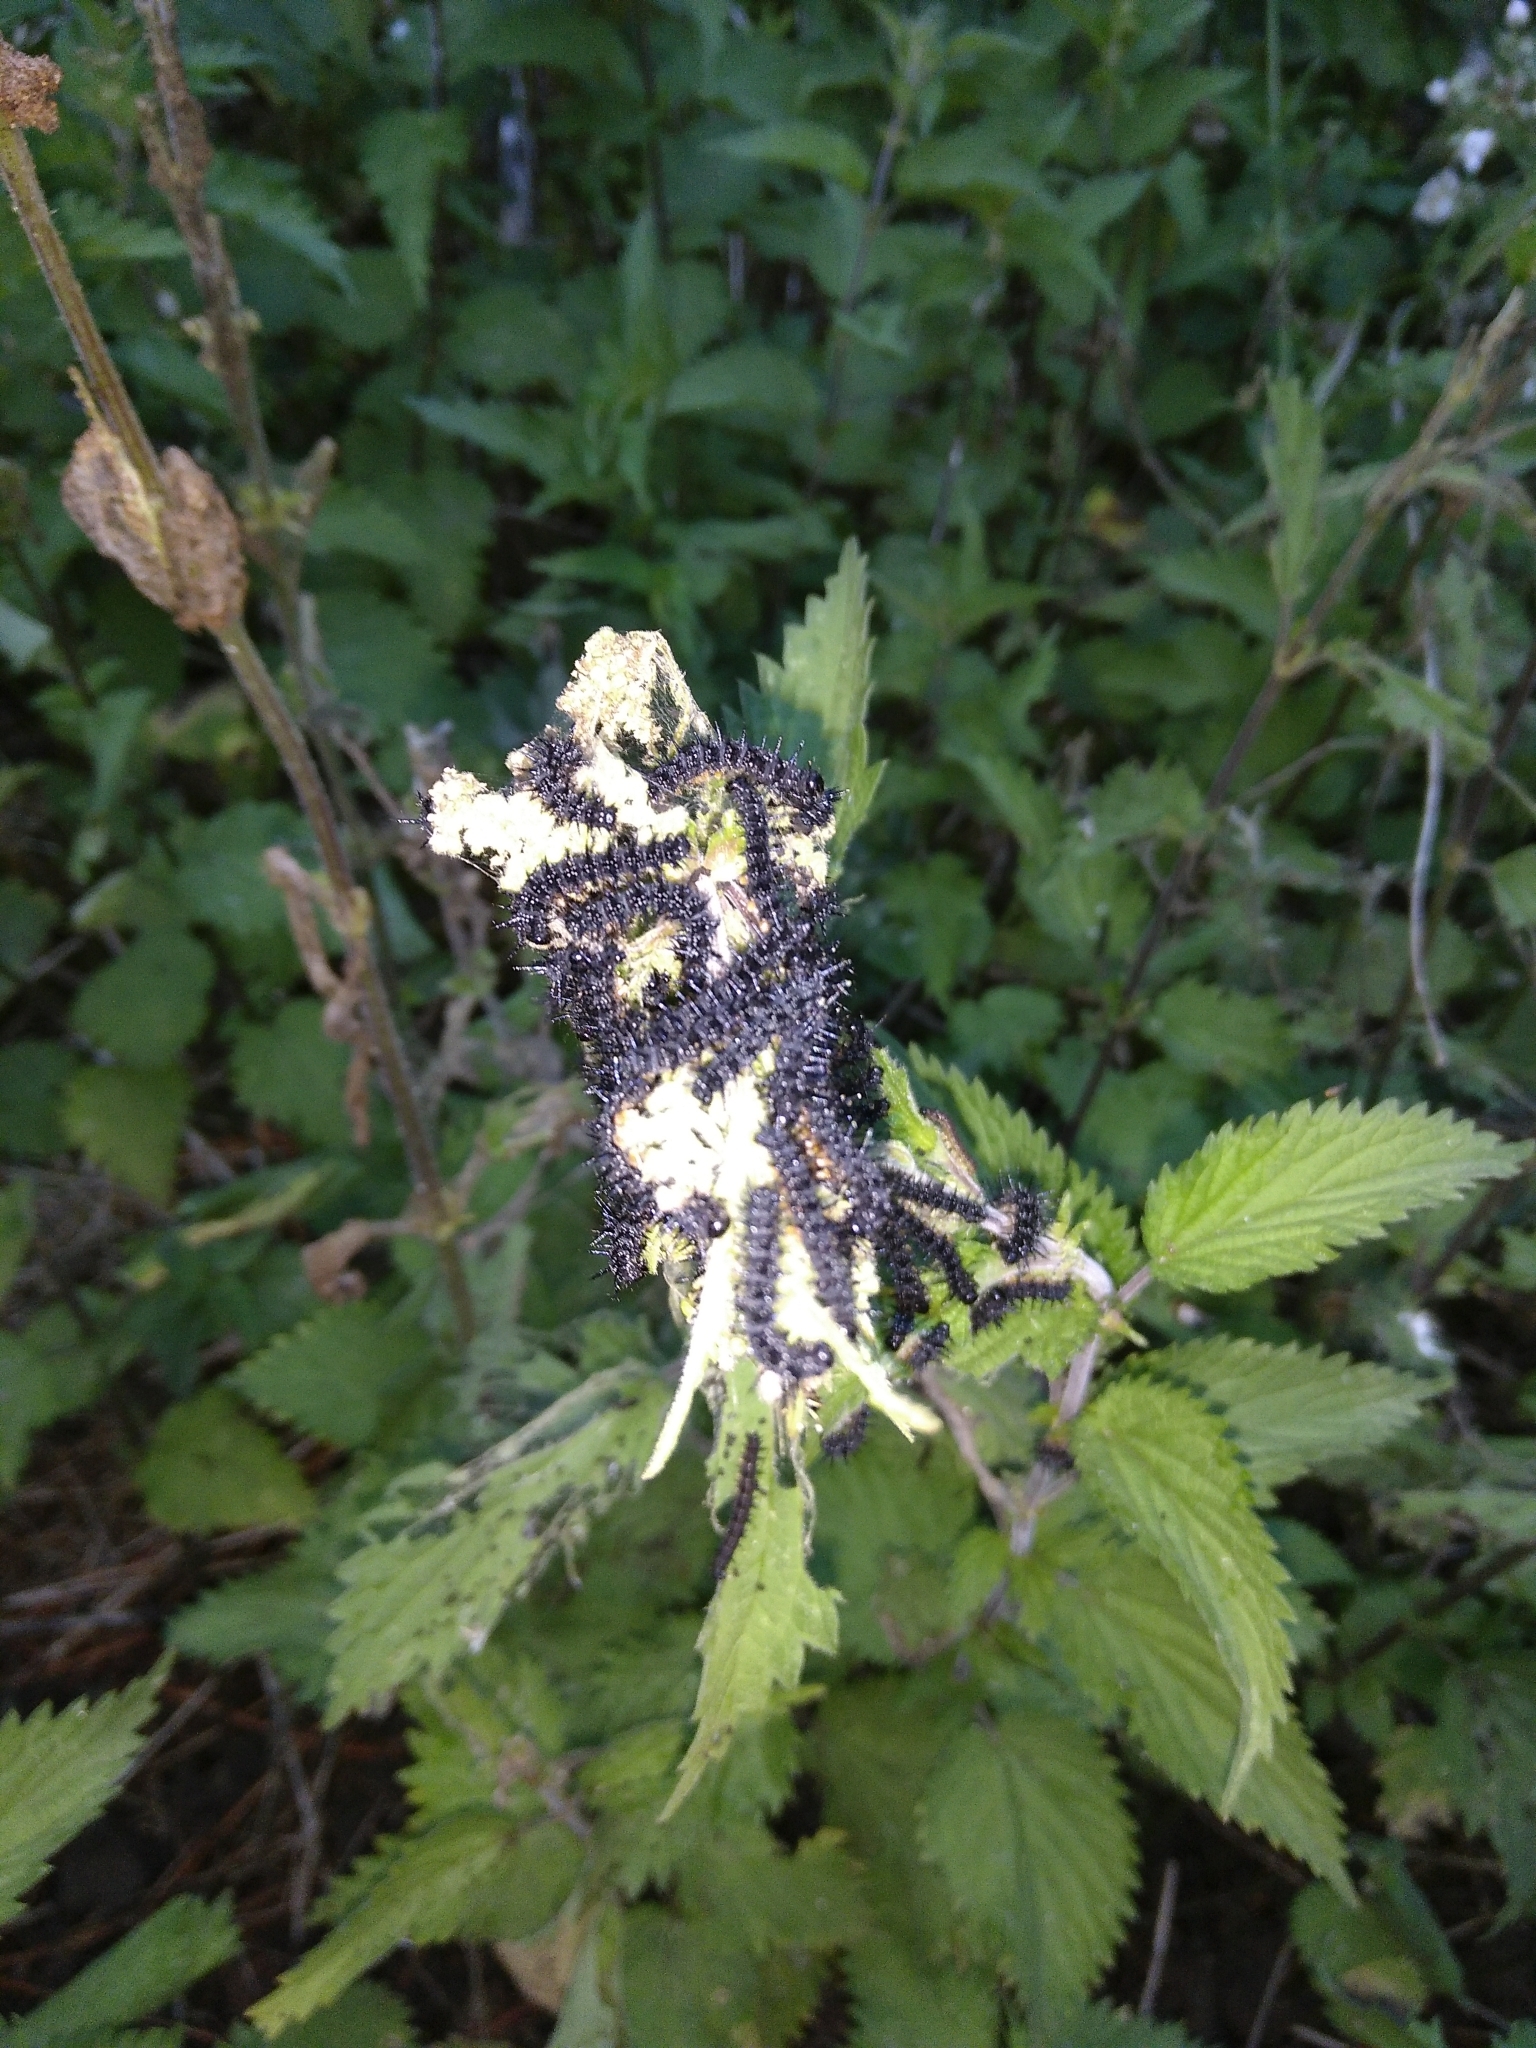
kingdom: Animalia
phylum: Arthropoda
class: Insecta
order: Lepidoptera
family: Nymphalidae
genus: Aglais
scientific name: Aglais io
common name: Peacock
